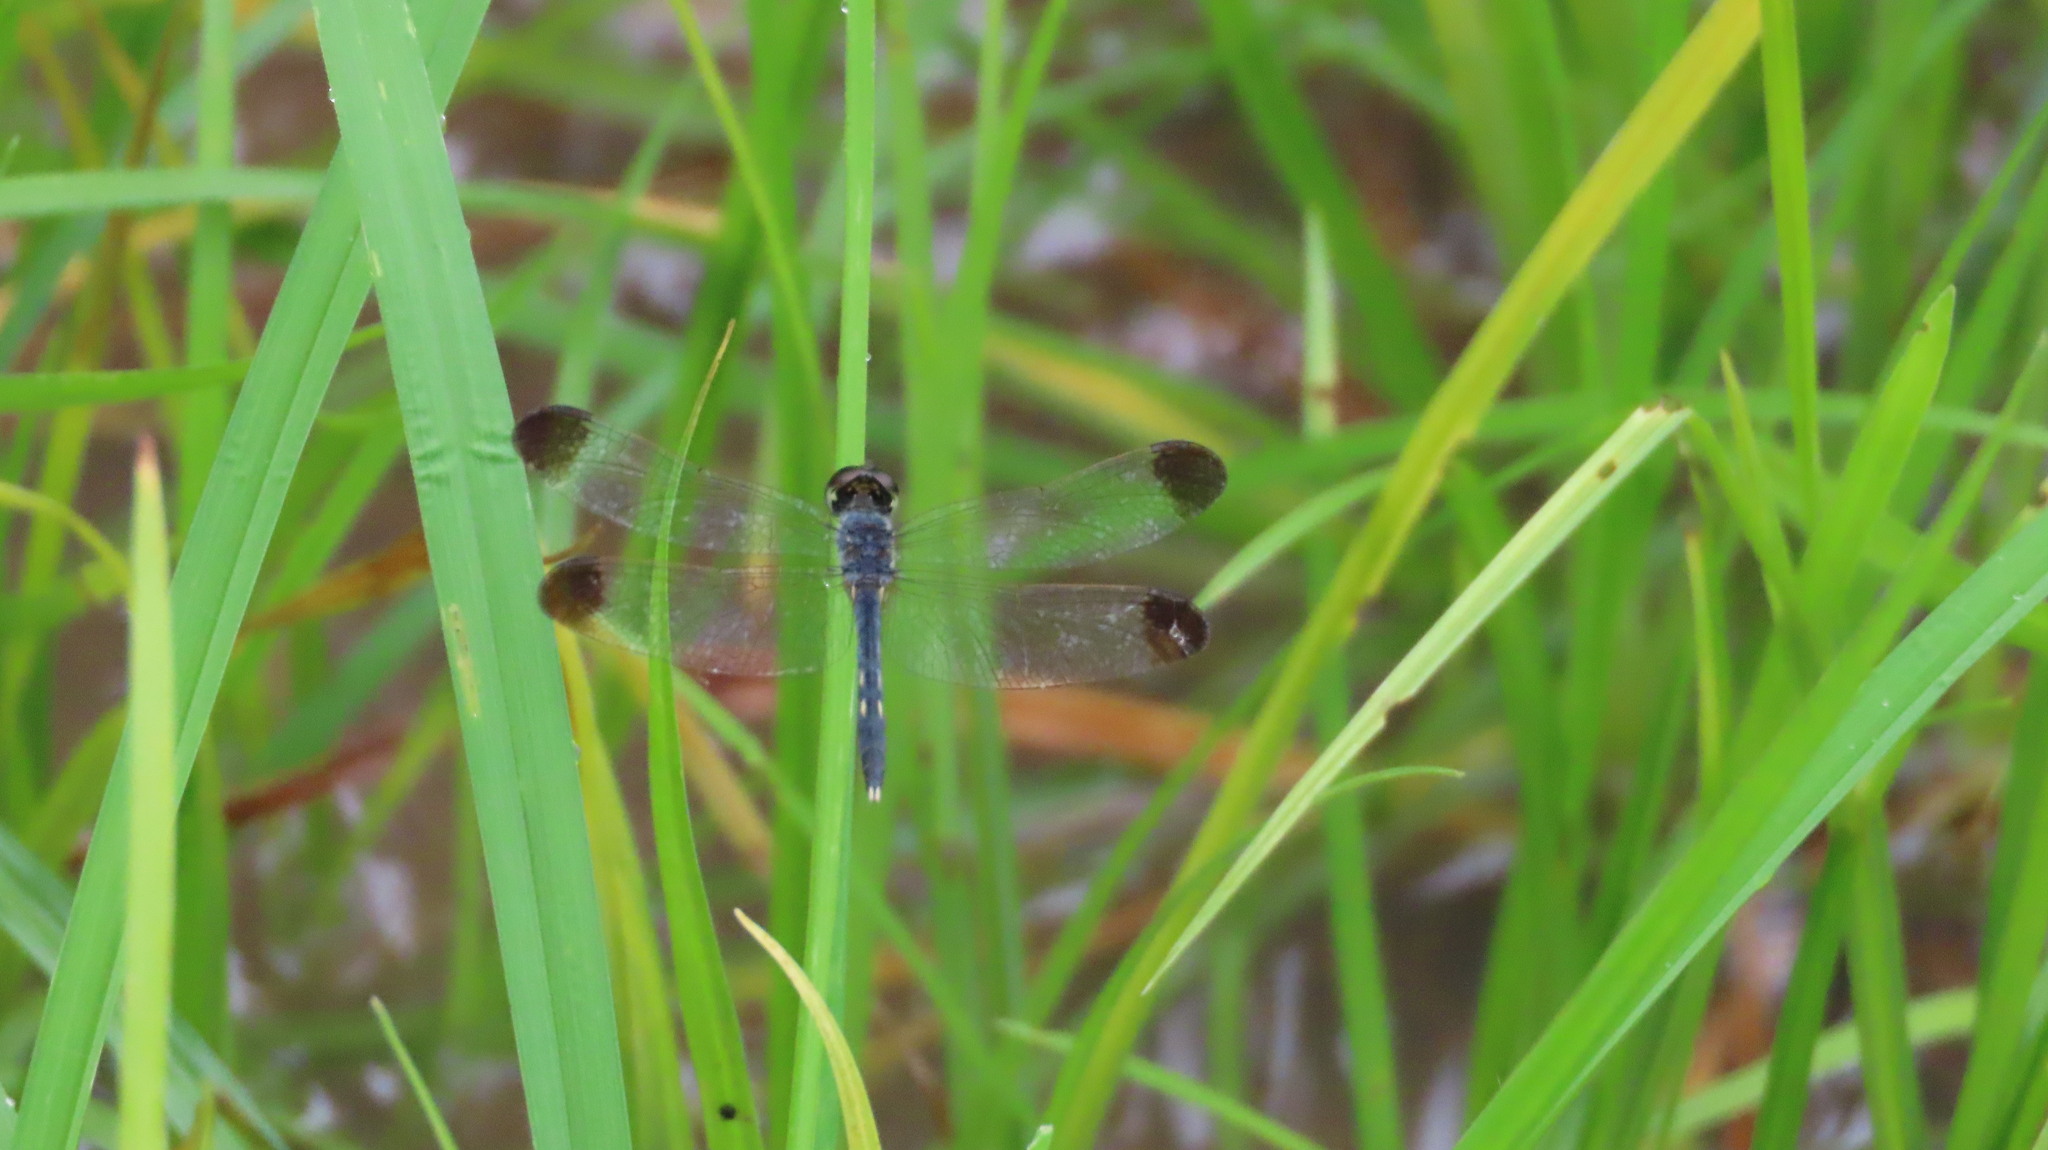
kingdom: Animalia
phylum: Arthropoda
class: Insecta
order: Odonata
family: Libellulidae
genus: Diplacodes
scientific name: Diplacodes nebulosa
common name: Black-tipped percher
